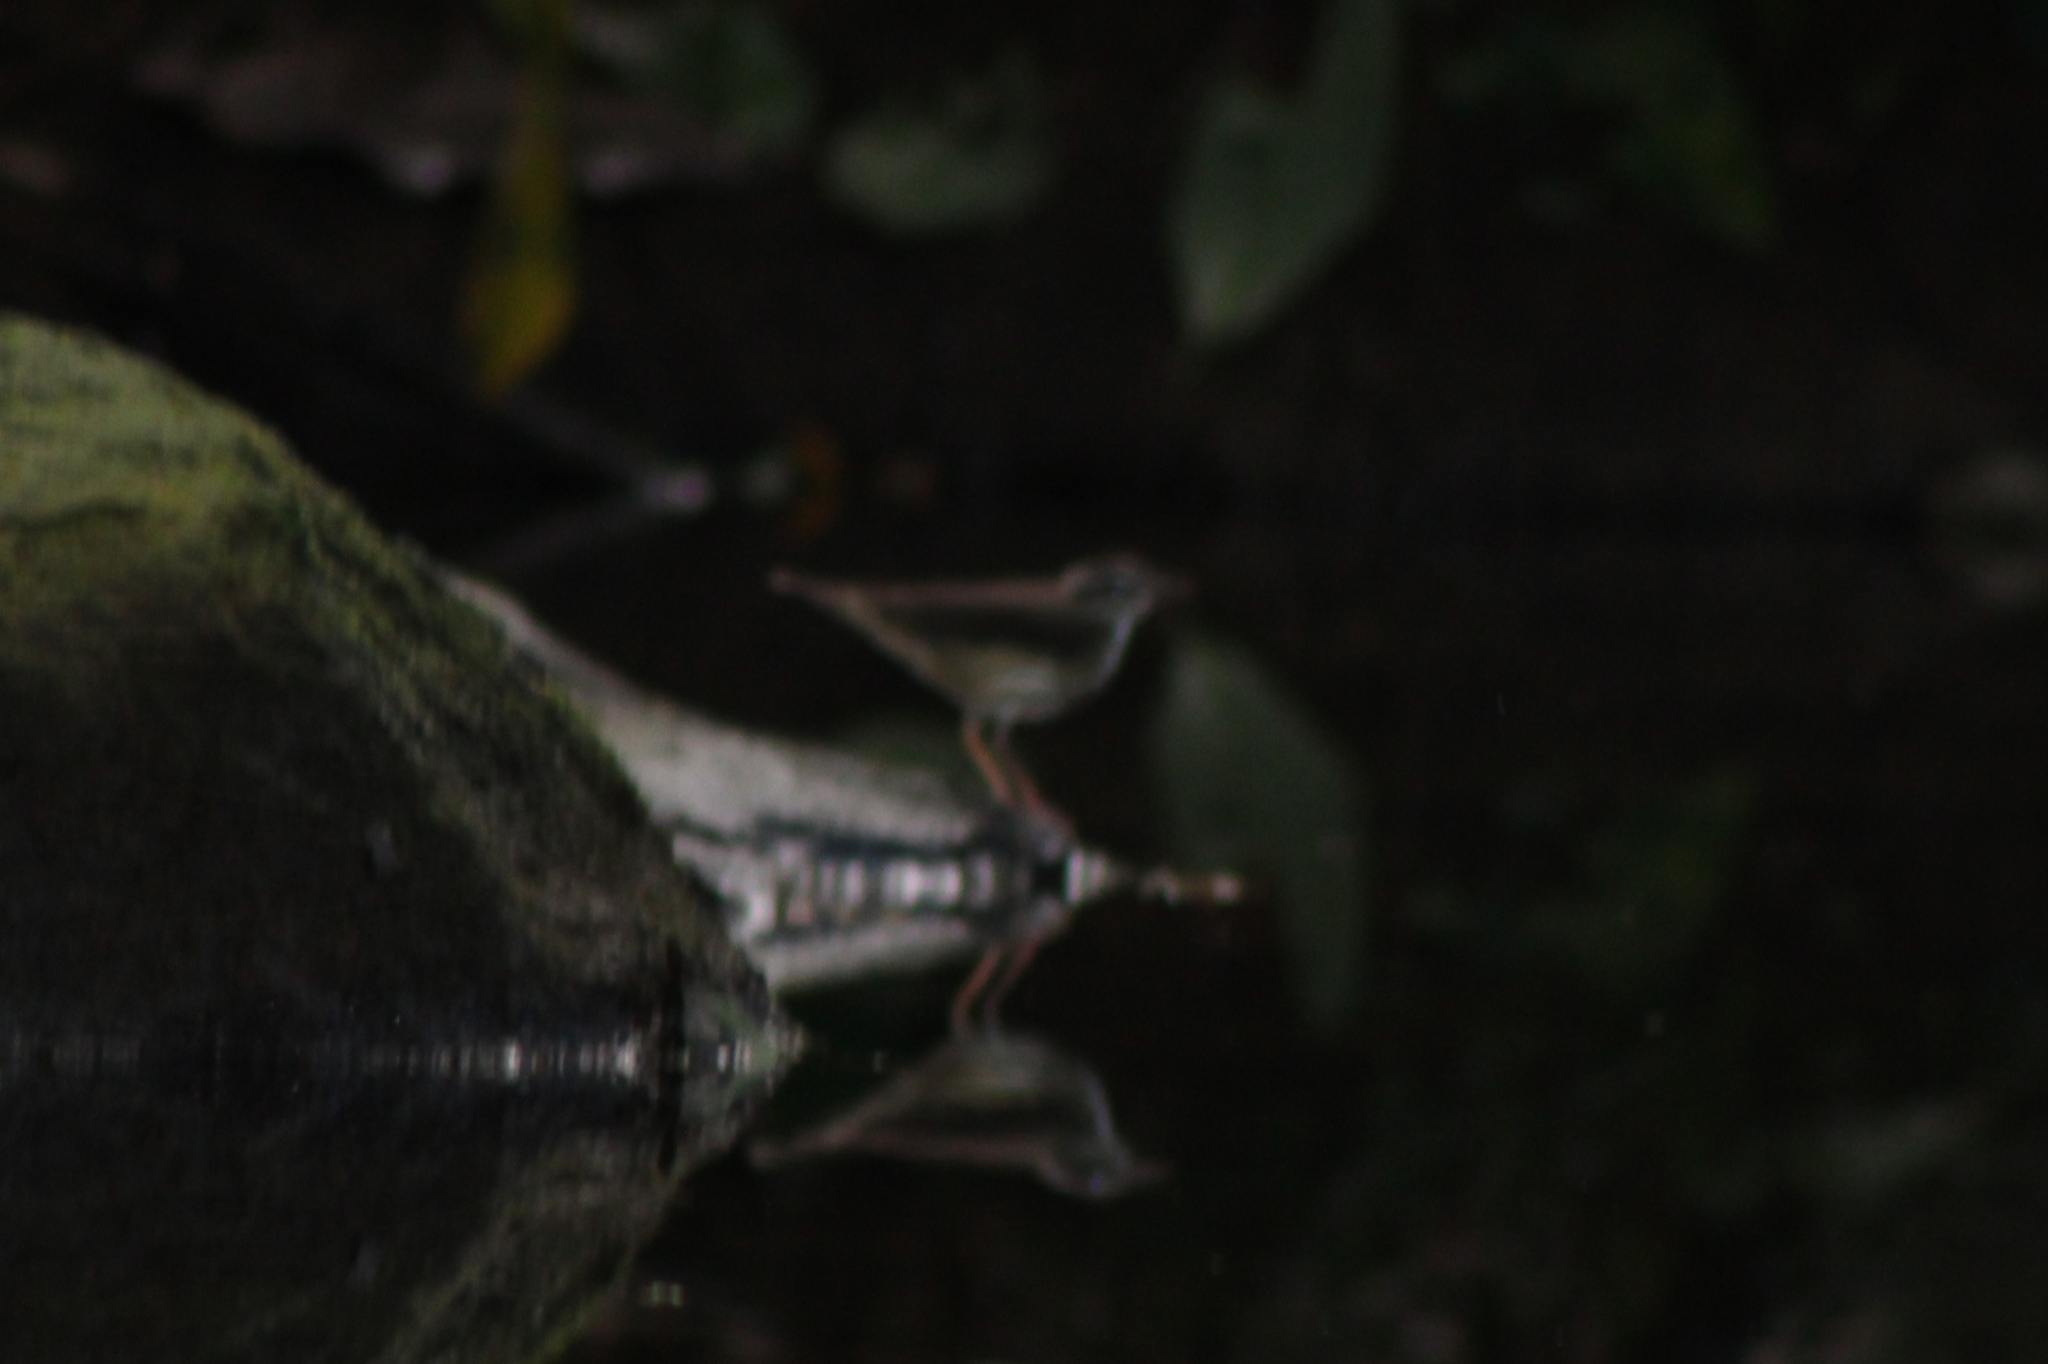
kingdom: Animalia
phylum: Chordata
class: Aves
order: Passeriformes
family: Parulidae
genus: Parkesia
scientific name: Parkesia noveboracensis
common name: Northern waterthrush
